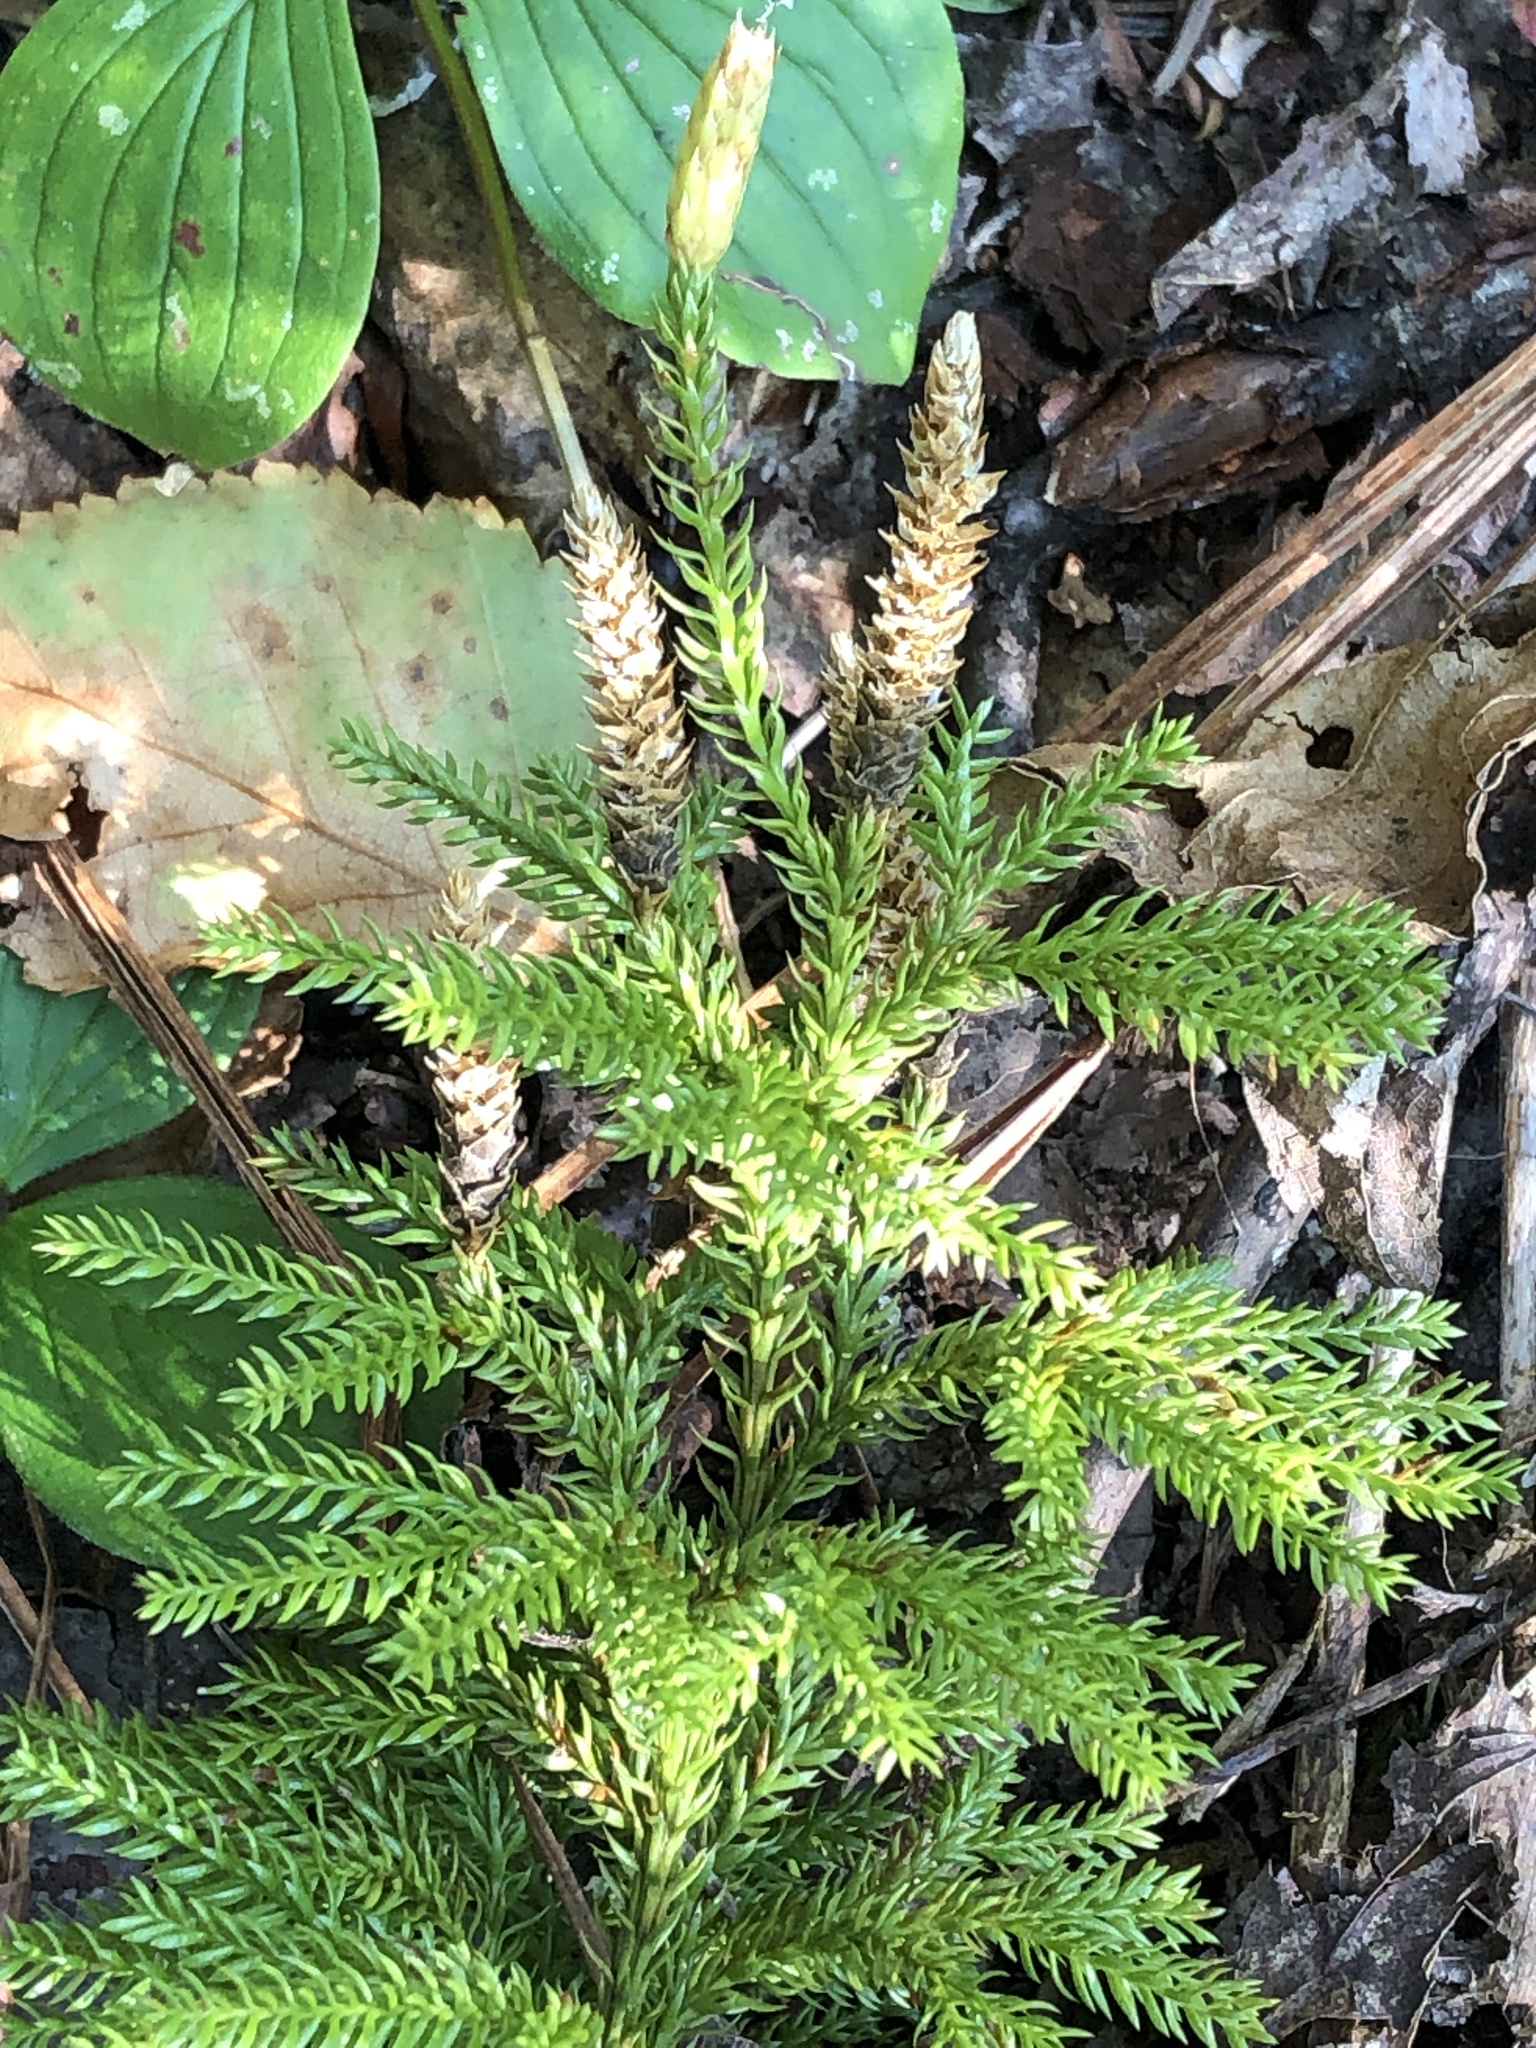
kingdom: Plantae
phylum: Tracheophyta
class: Lycopodiopsida
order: Lycopodiales
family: Lycopodiaceae
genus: Dendrolycopodium
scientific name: Dendrolycopodium dendroideum
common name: Northern tree-clubmoss
